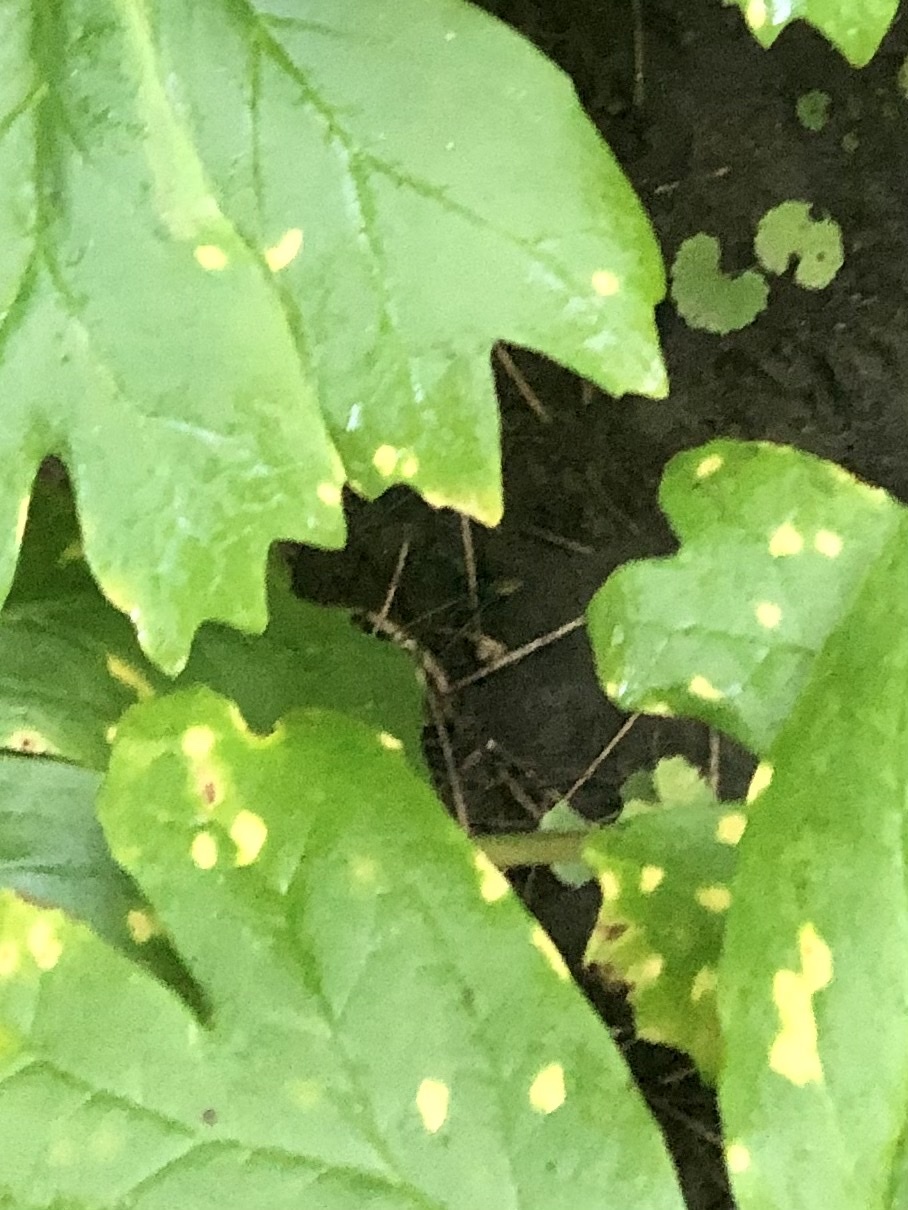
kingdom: Fungi
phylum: Basidiomycota
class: Pucciniomycetes
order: Pucciniales
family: Pucciniaceae
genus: Puccinia
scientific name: Puccinia podophylli
